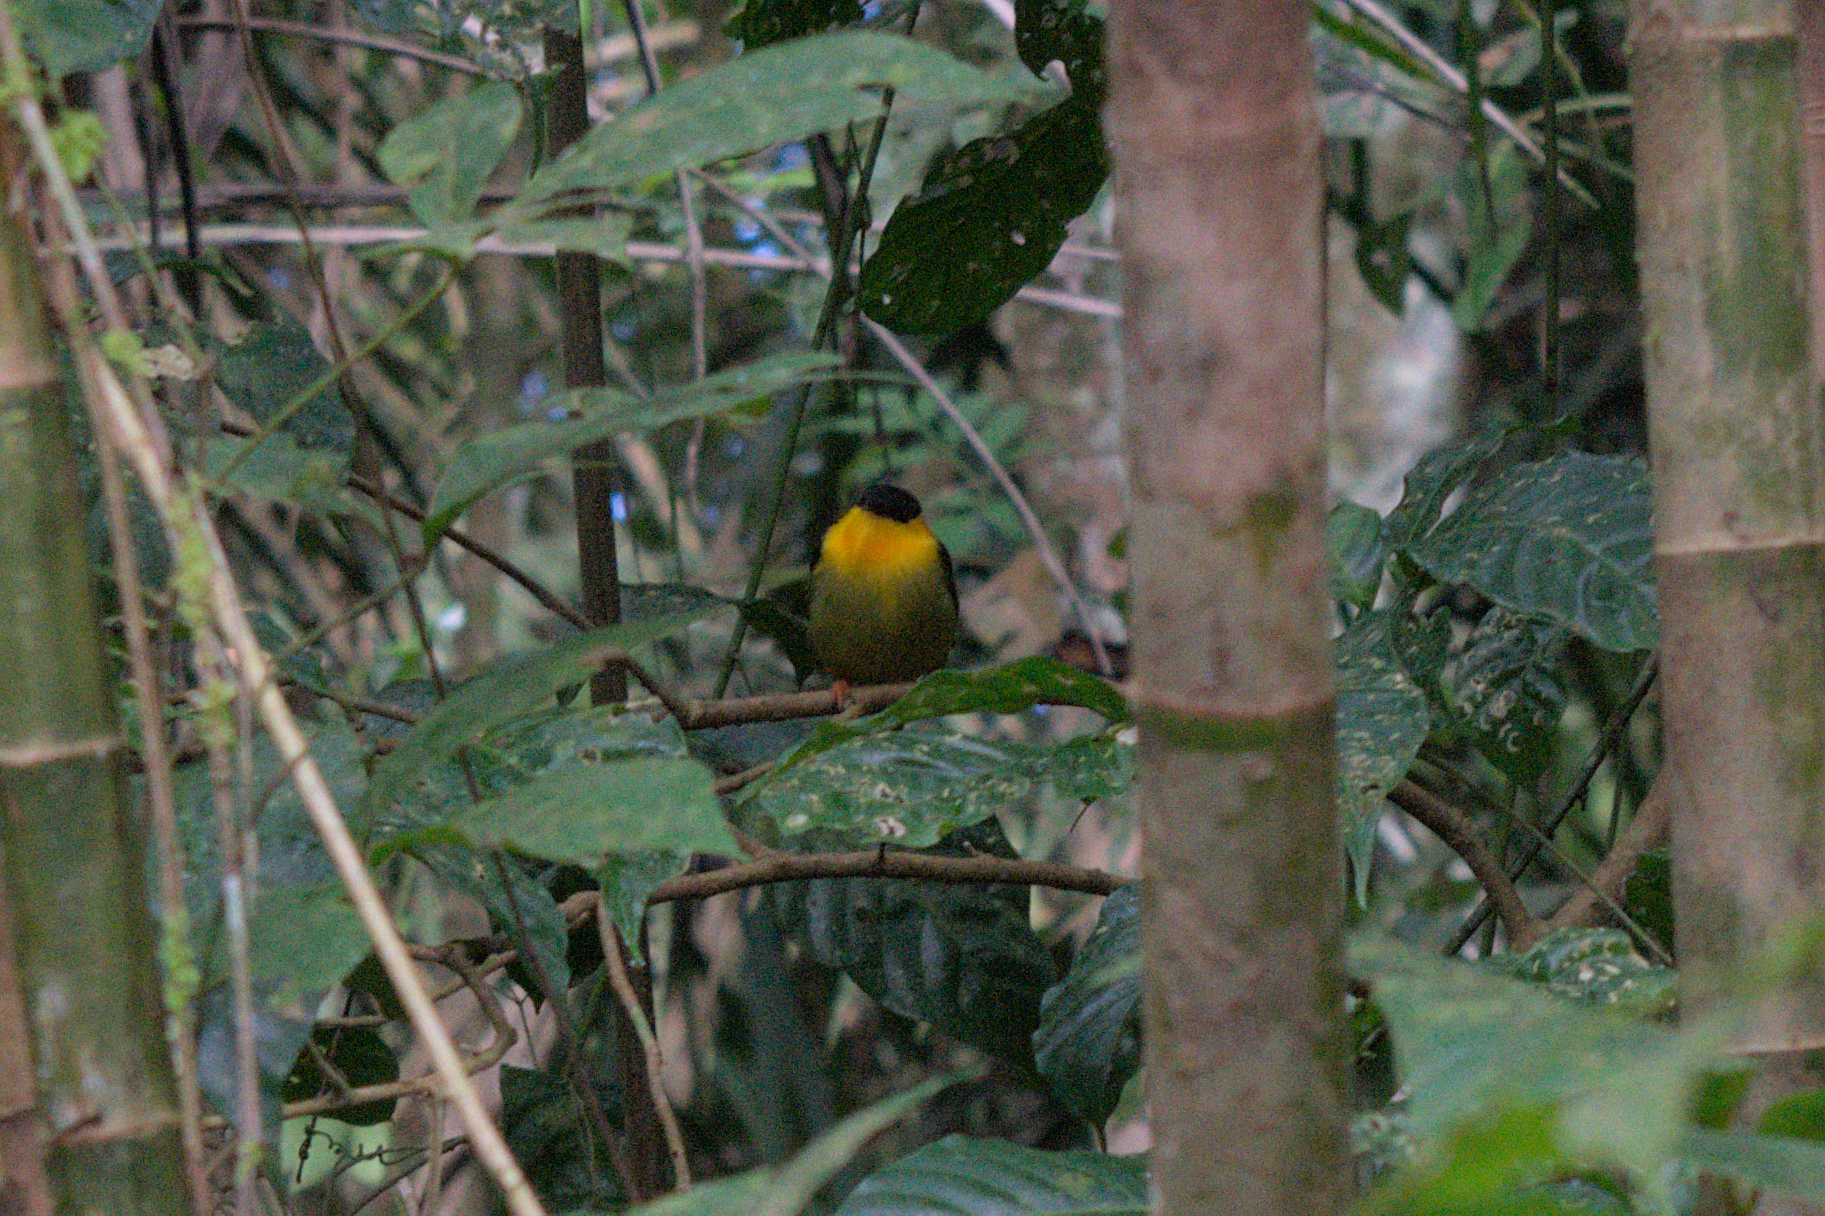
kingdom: Animalia
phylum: Chordata
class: Aves
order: Passeriformes
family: Pipridae
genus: Manacus
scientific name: Manacus vitellinus
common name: Golden-collared manakin
